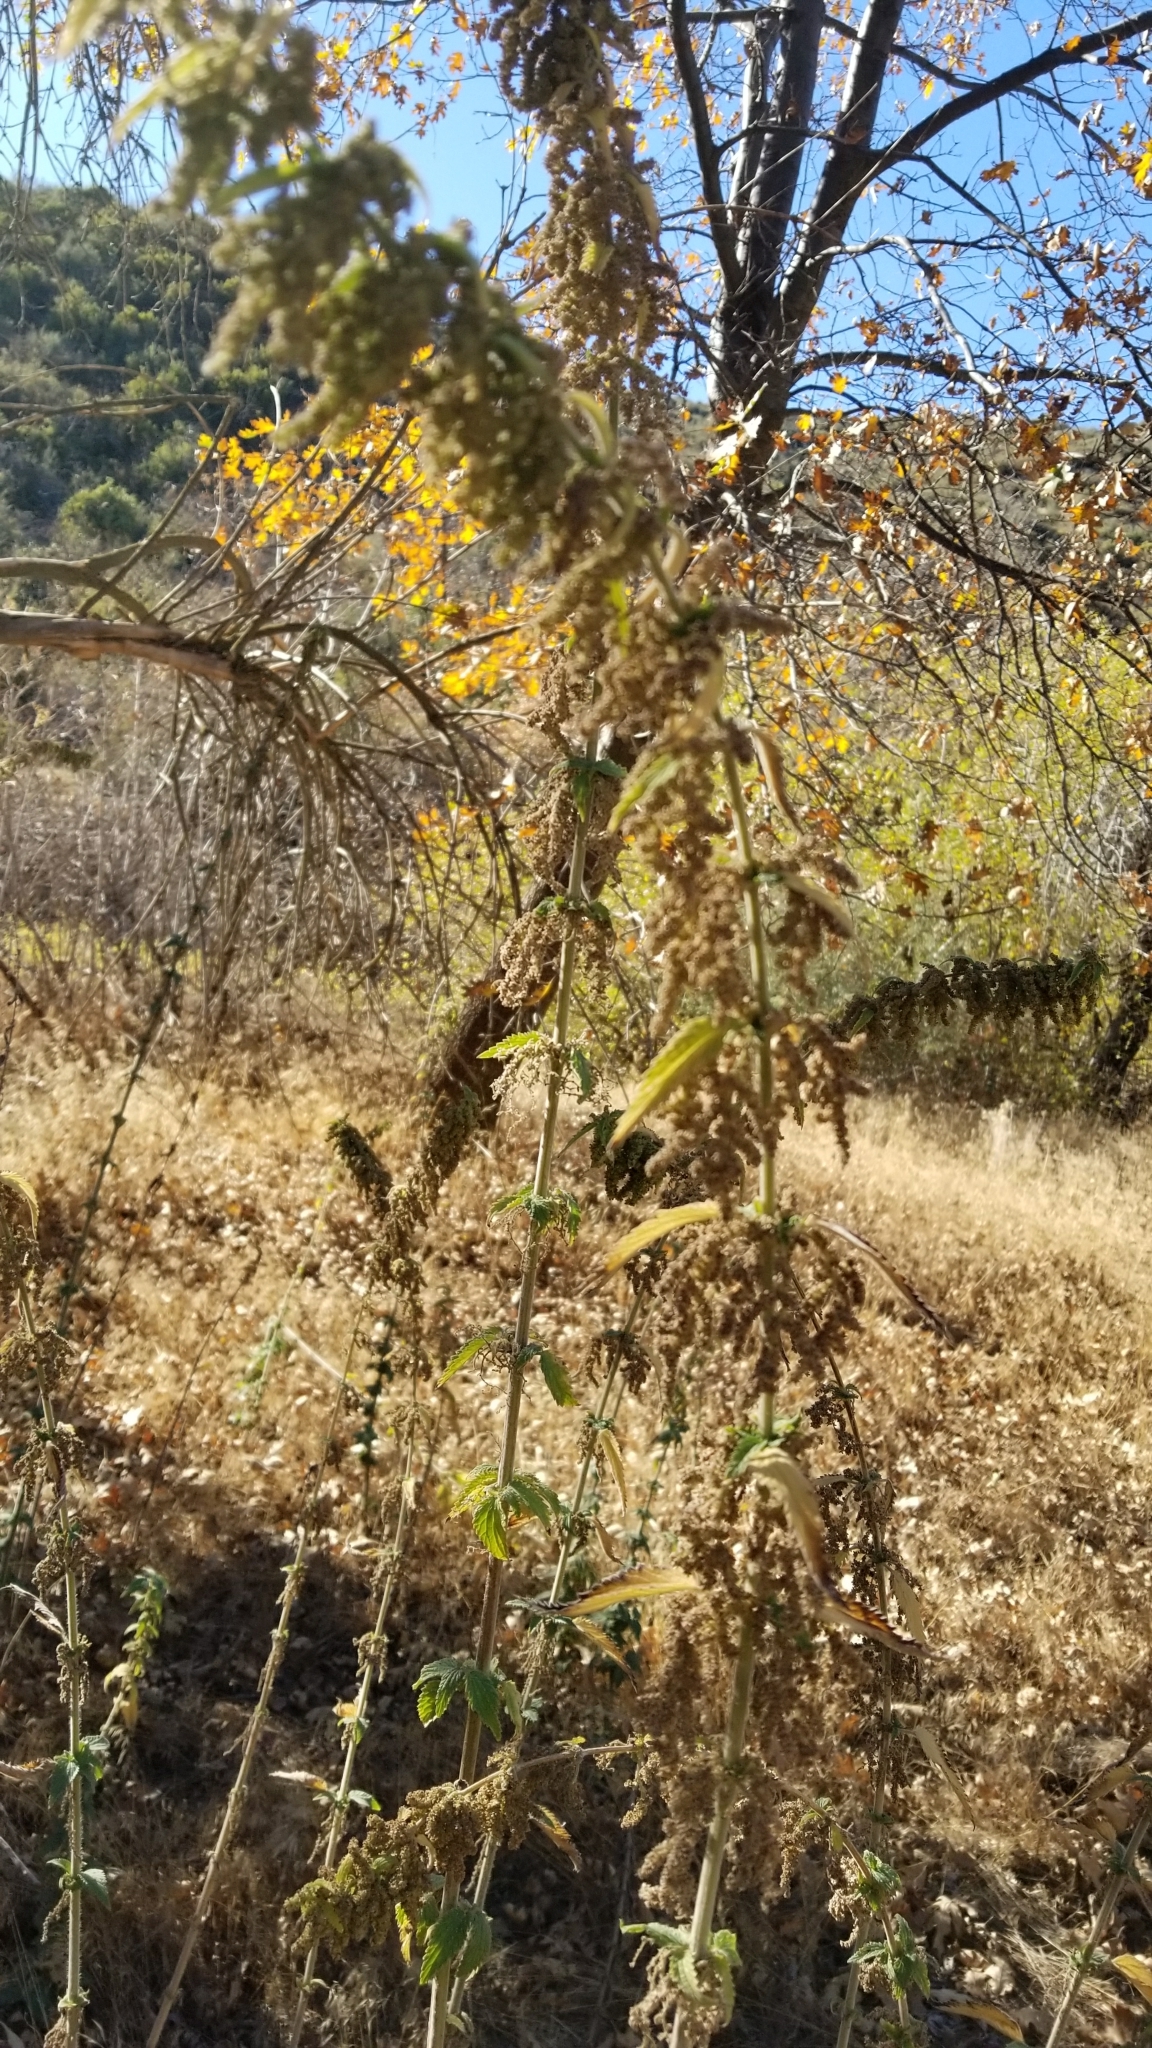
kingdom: Plantae
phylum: Tracheophyta
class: Magnoliopsida
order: Rosales
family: Urticaceae
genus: Urtica
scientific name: Urtica dioica
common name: Common nettle
